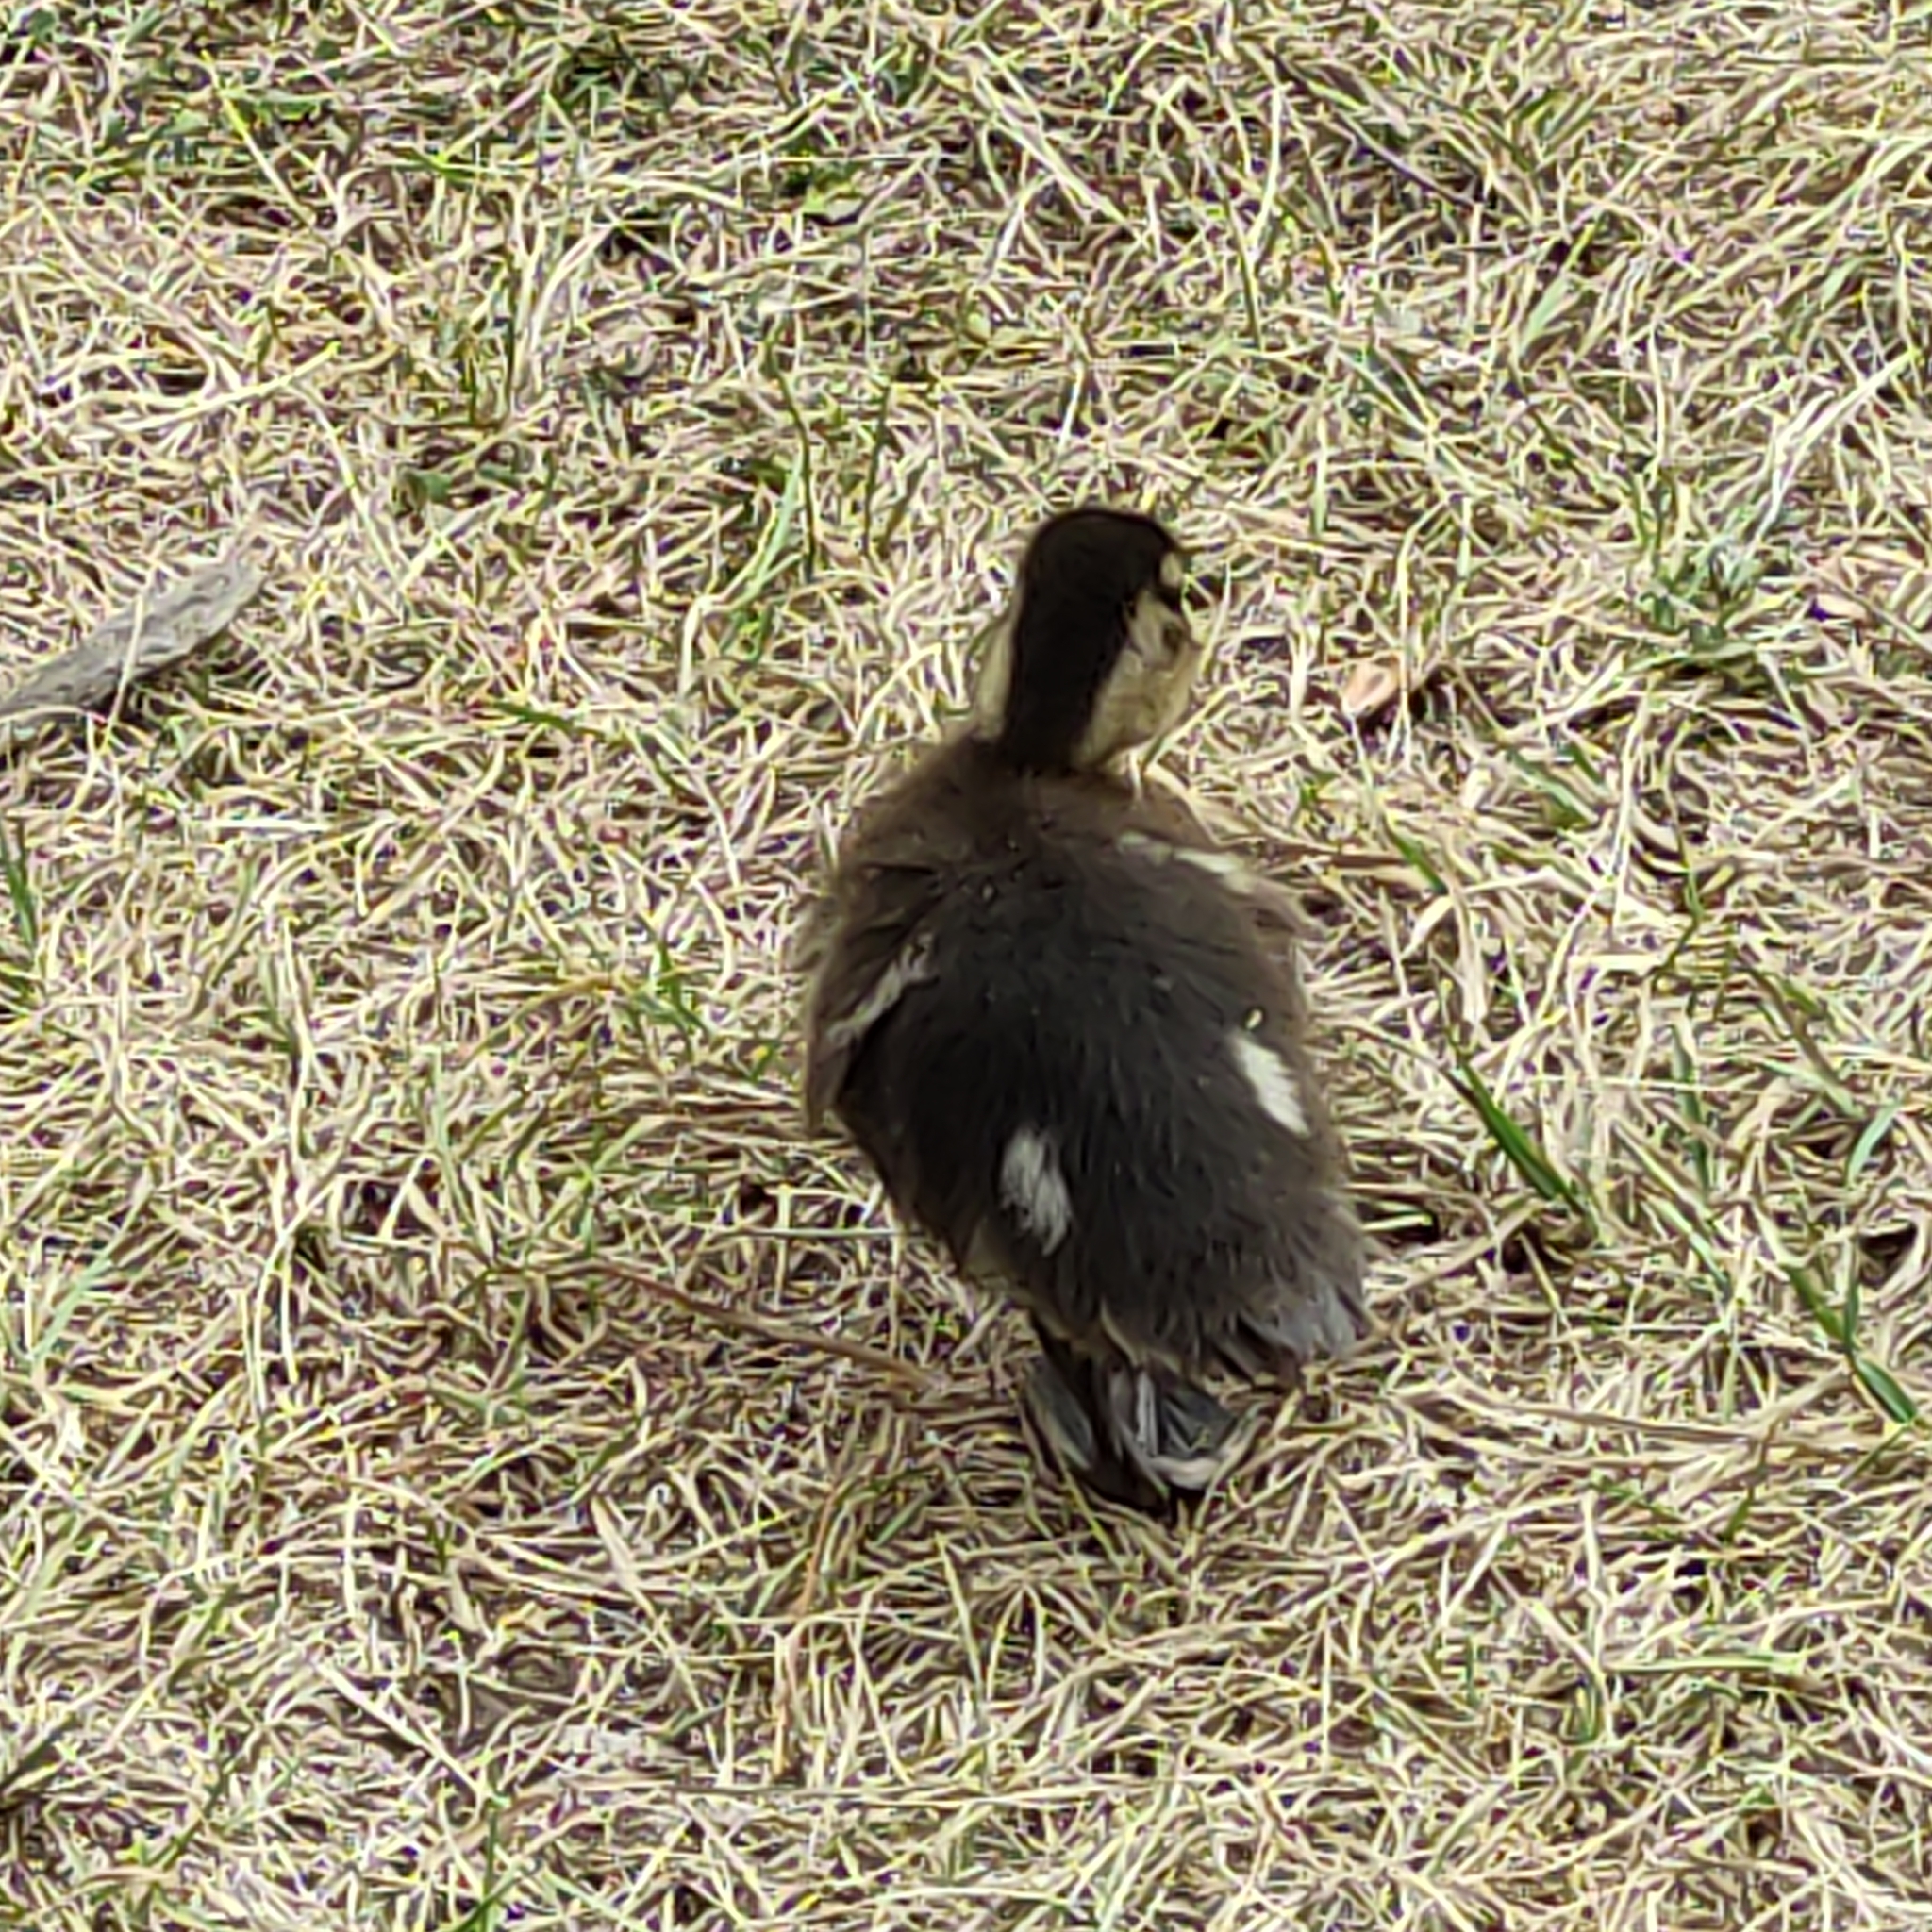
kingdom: Animalia
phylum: Chordata
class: Aves
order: Anseriformes
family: Anatidae
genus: Anas
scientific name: Anas
